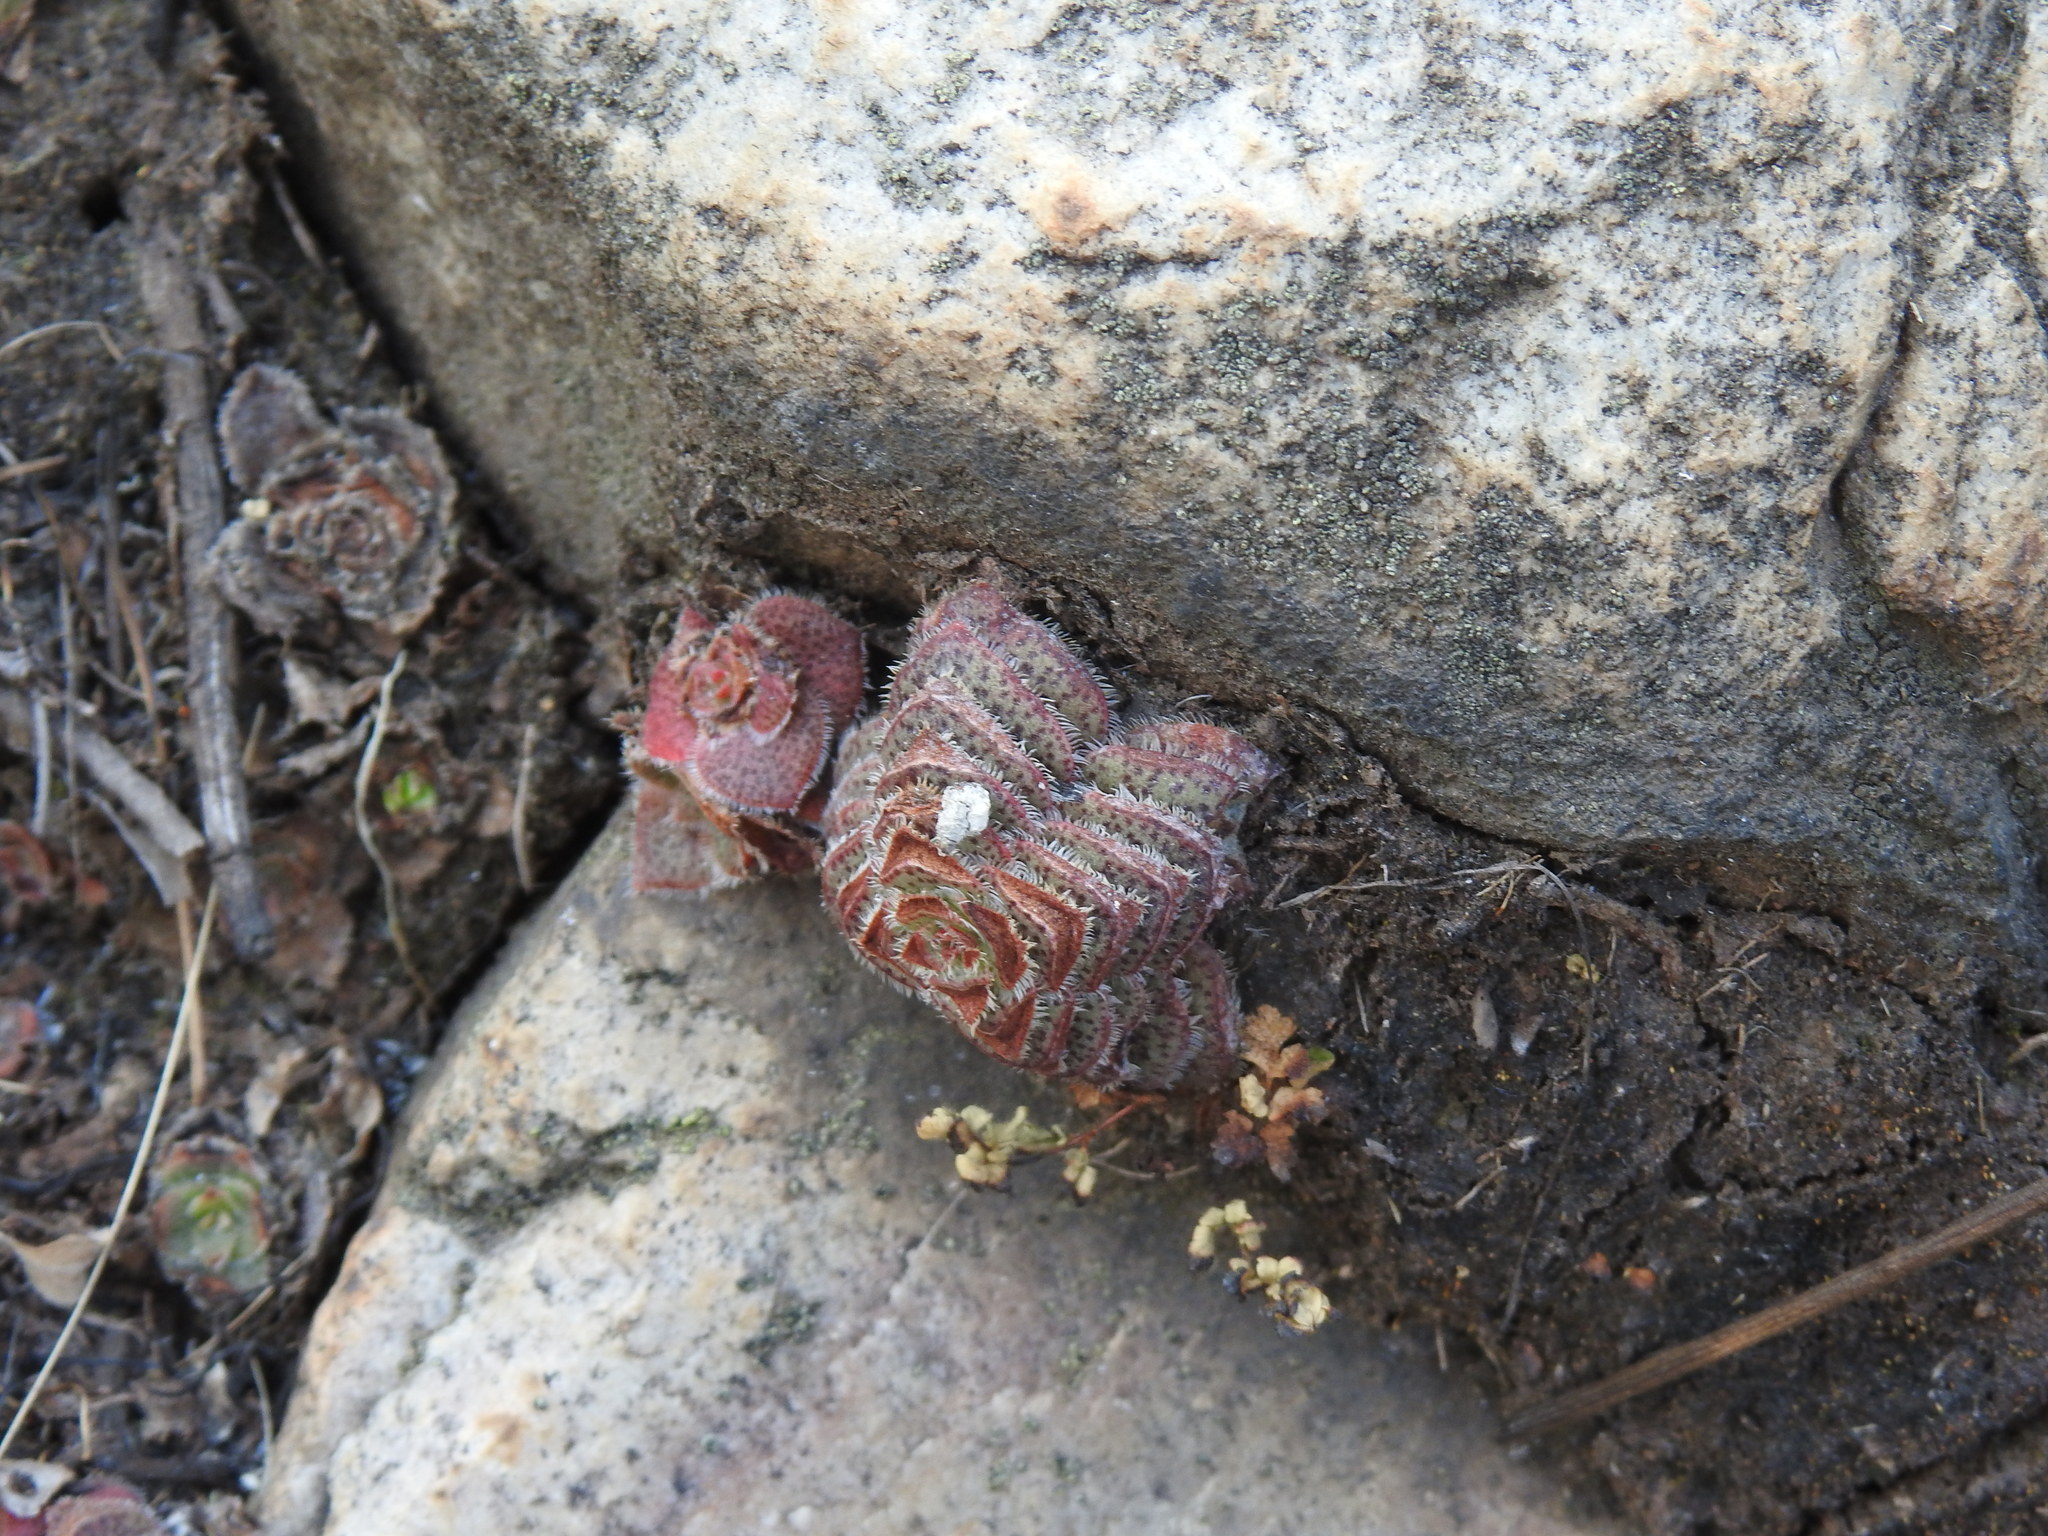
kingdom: Plantae
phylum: Tracheophyta
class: Magnoliopsida
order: Saxifragales
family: Crassulaceae
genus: Crassula
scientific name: Crassula setulosa
